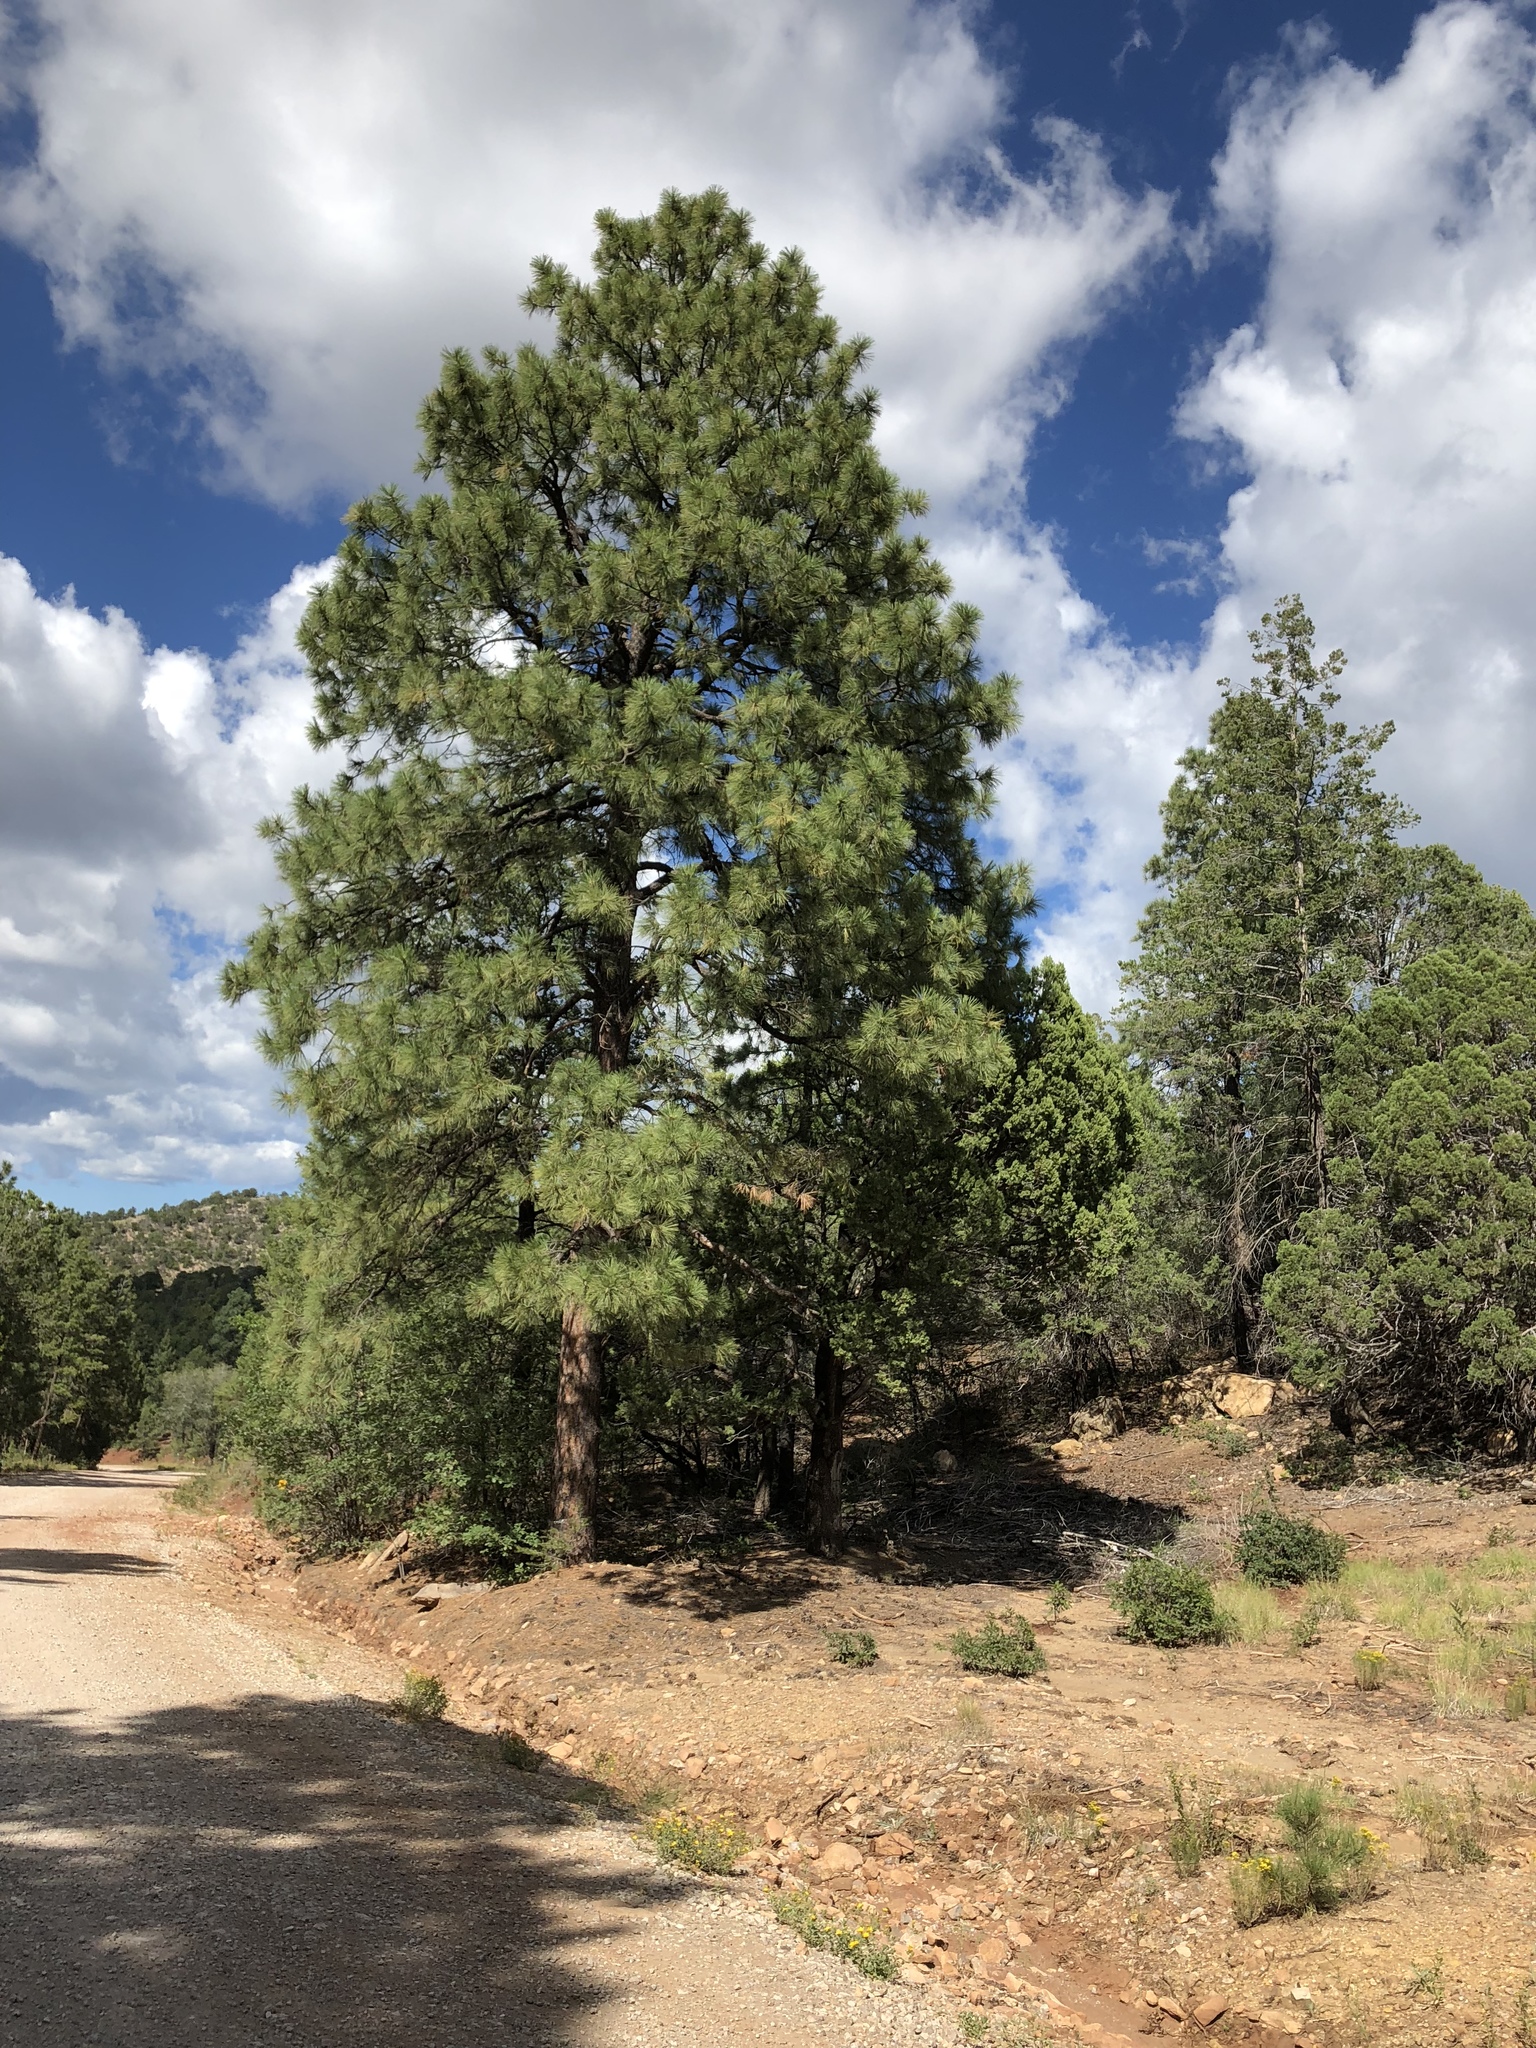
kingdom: Plantae
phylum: Tracheophyta
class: Pinopsida
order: Pinales
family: Pinaceae
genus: Pinus
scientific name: Pinus ponderosa
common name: Western yellow-pine
